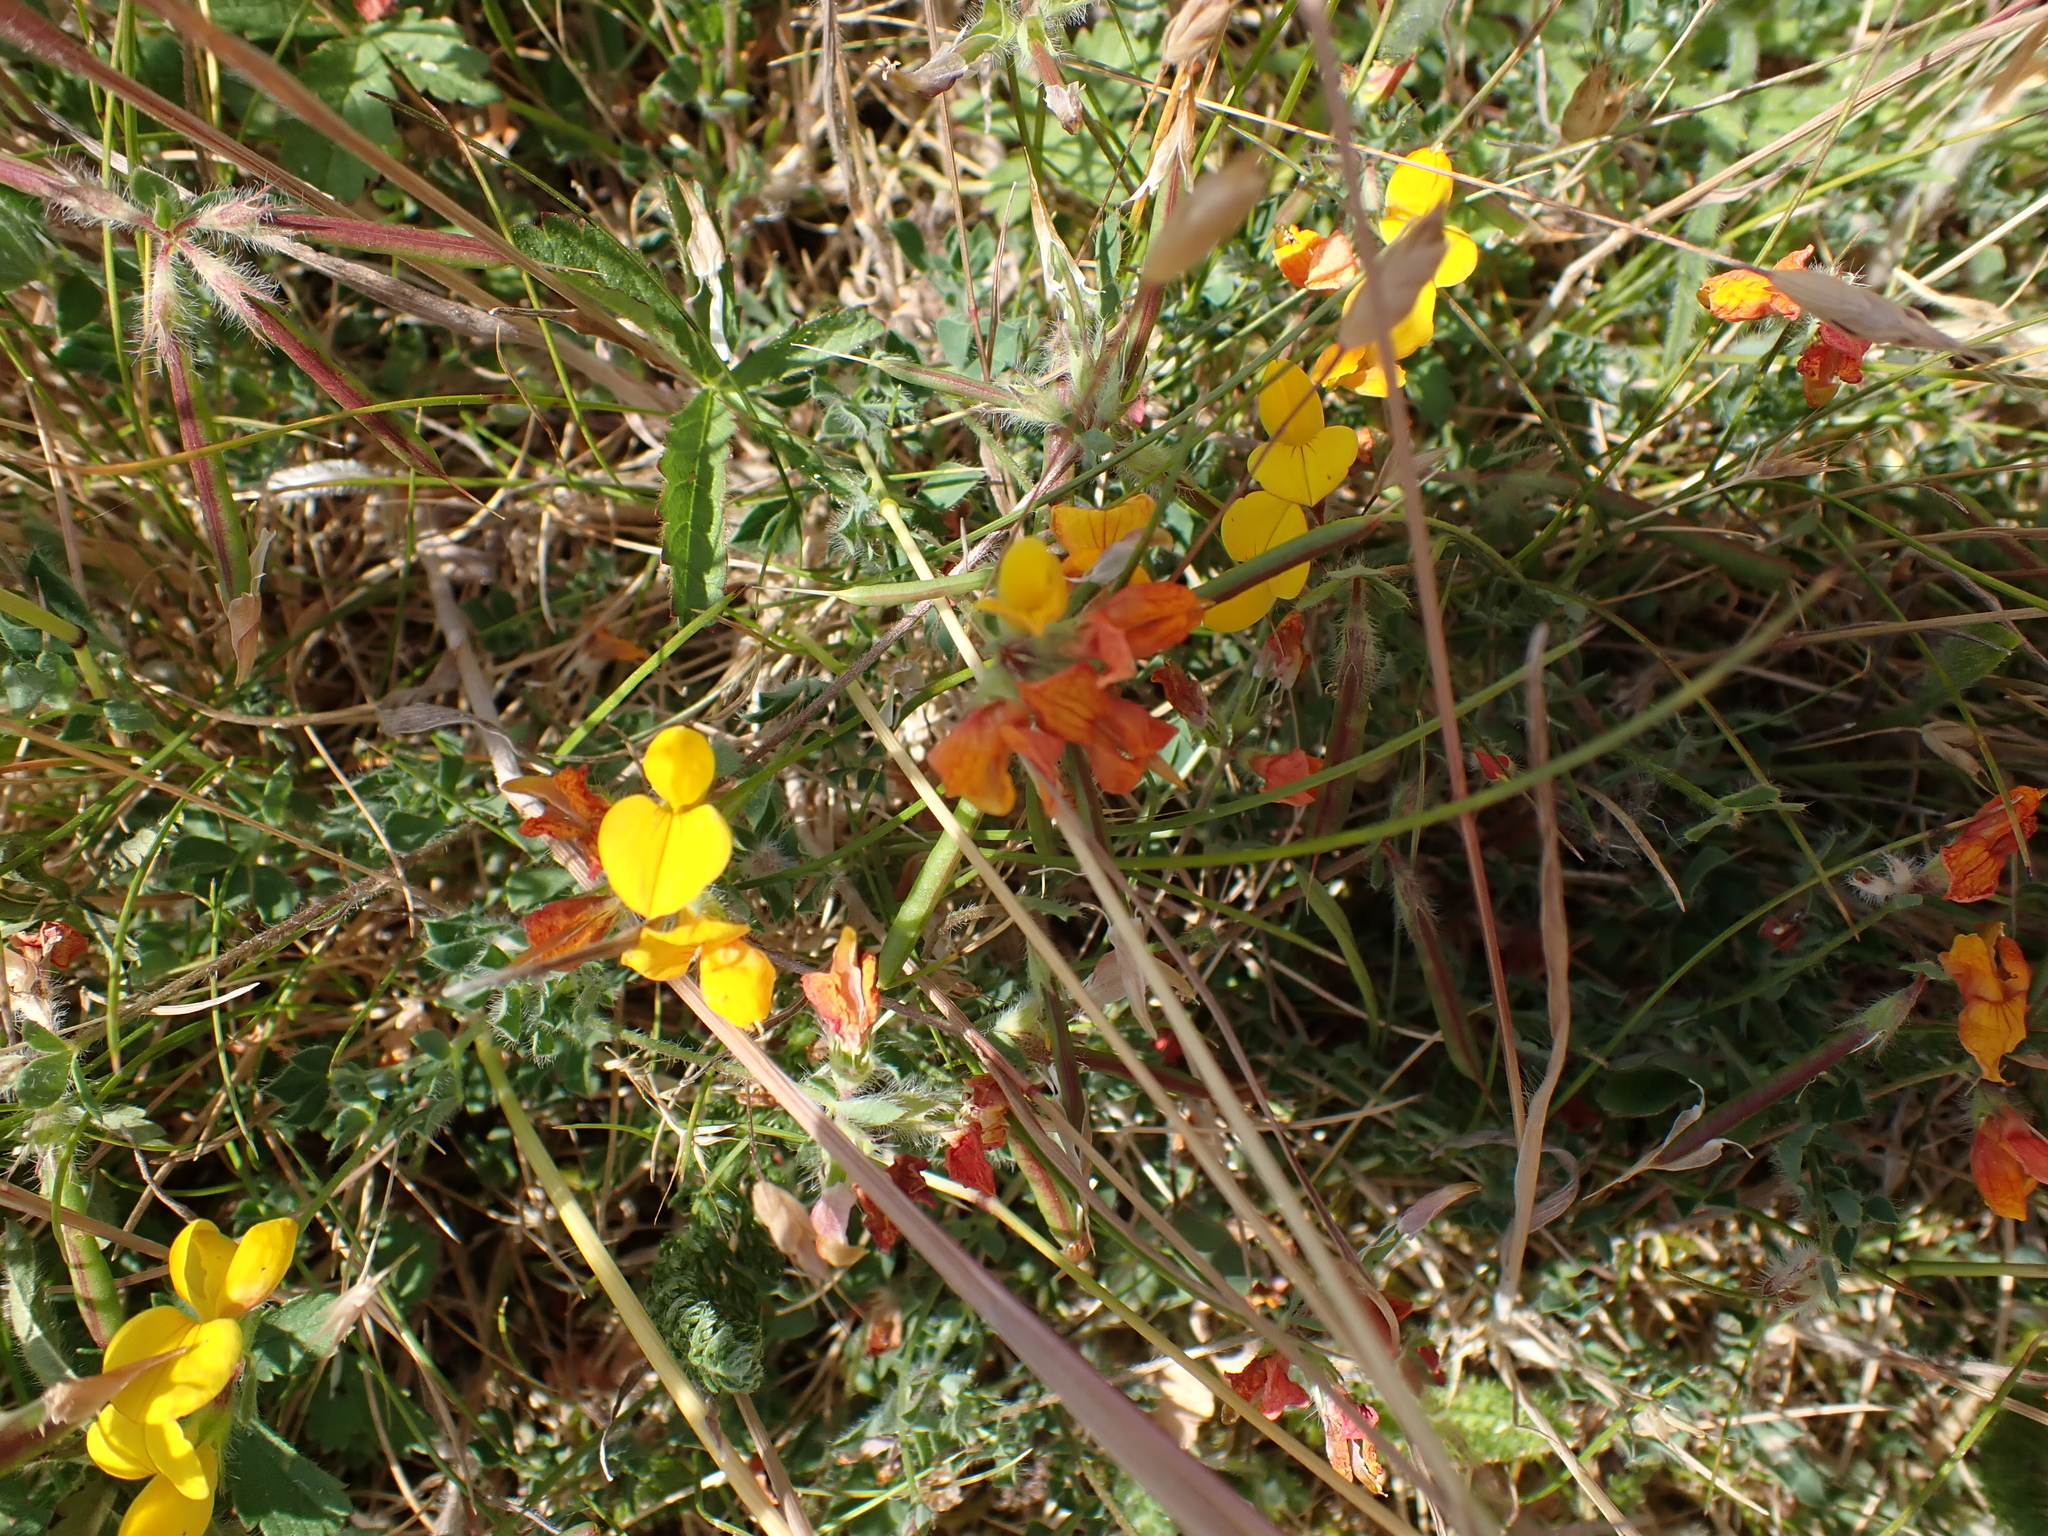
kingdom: Plantae
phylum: Tracheophyta
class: Magnoliopsida
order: Fabales
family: Fabaceae
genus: Lotus
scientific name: Lotus corniculatus
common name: Common bird's-foot-trefoil
